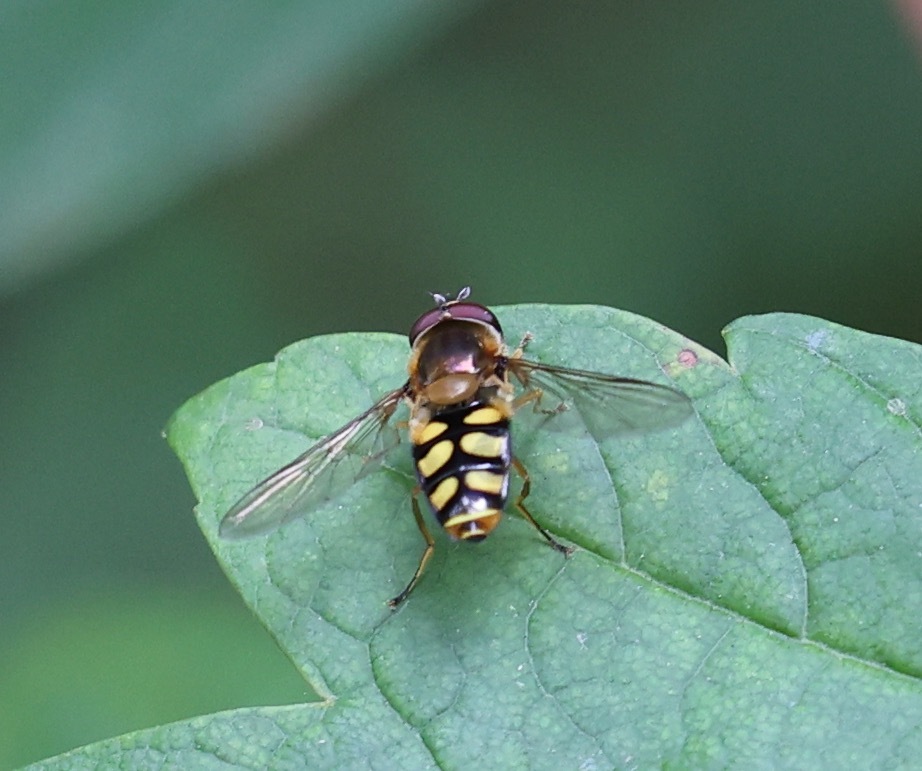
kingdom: Animalia
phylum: Arthropoda
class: Insecta
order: Diptera
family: Syrphidae
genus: Eupeodes
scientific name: Eupeodes
